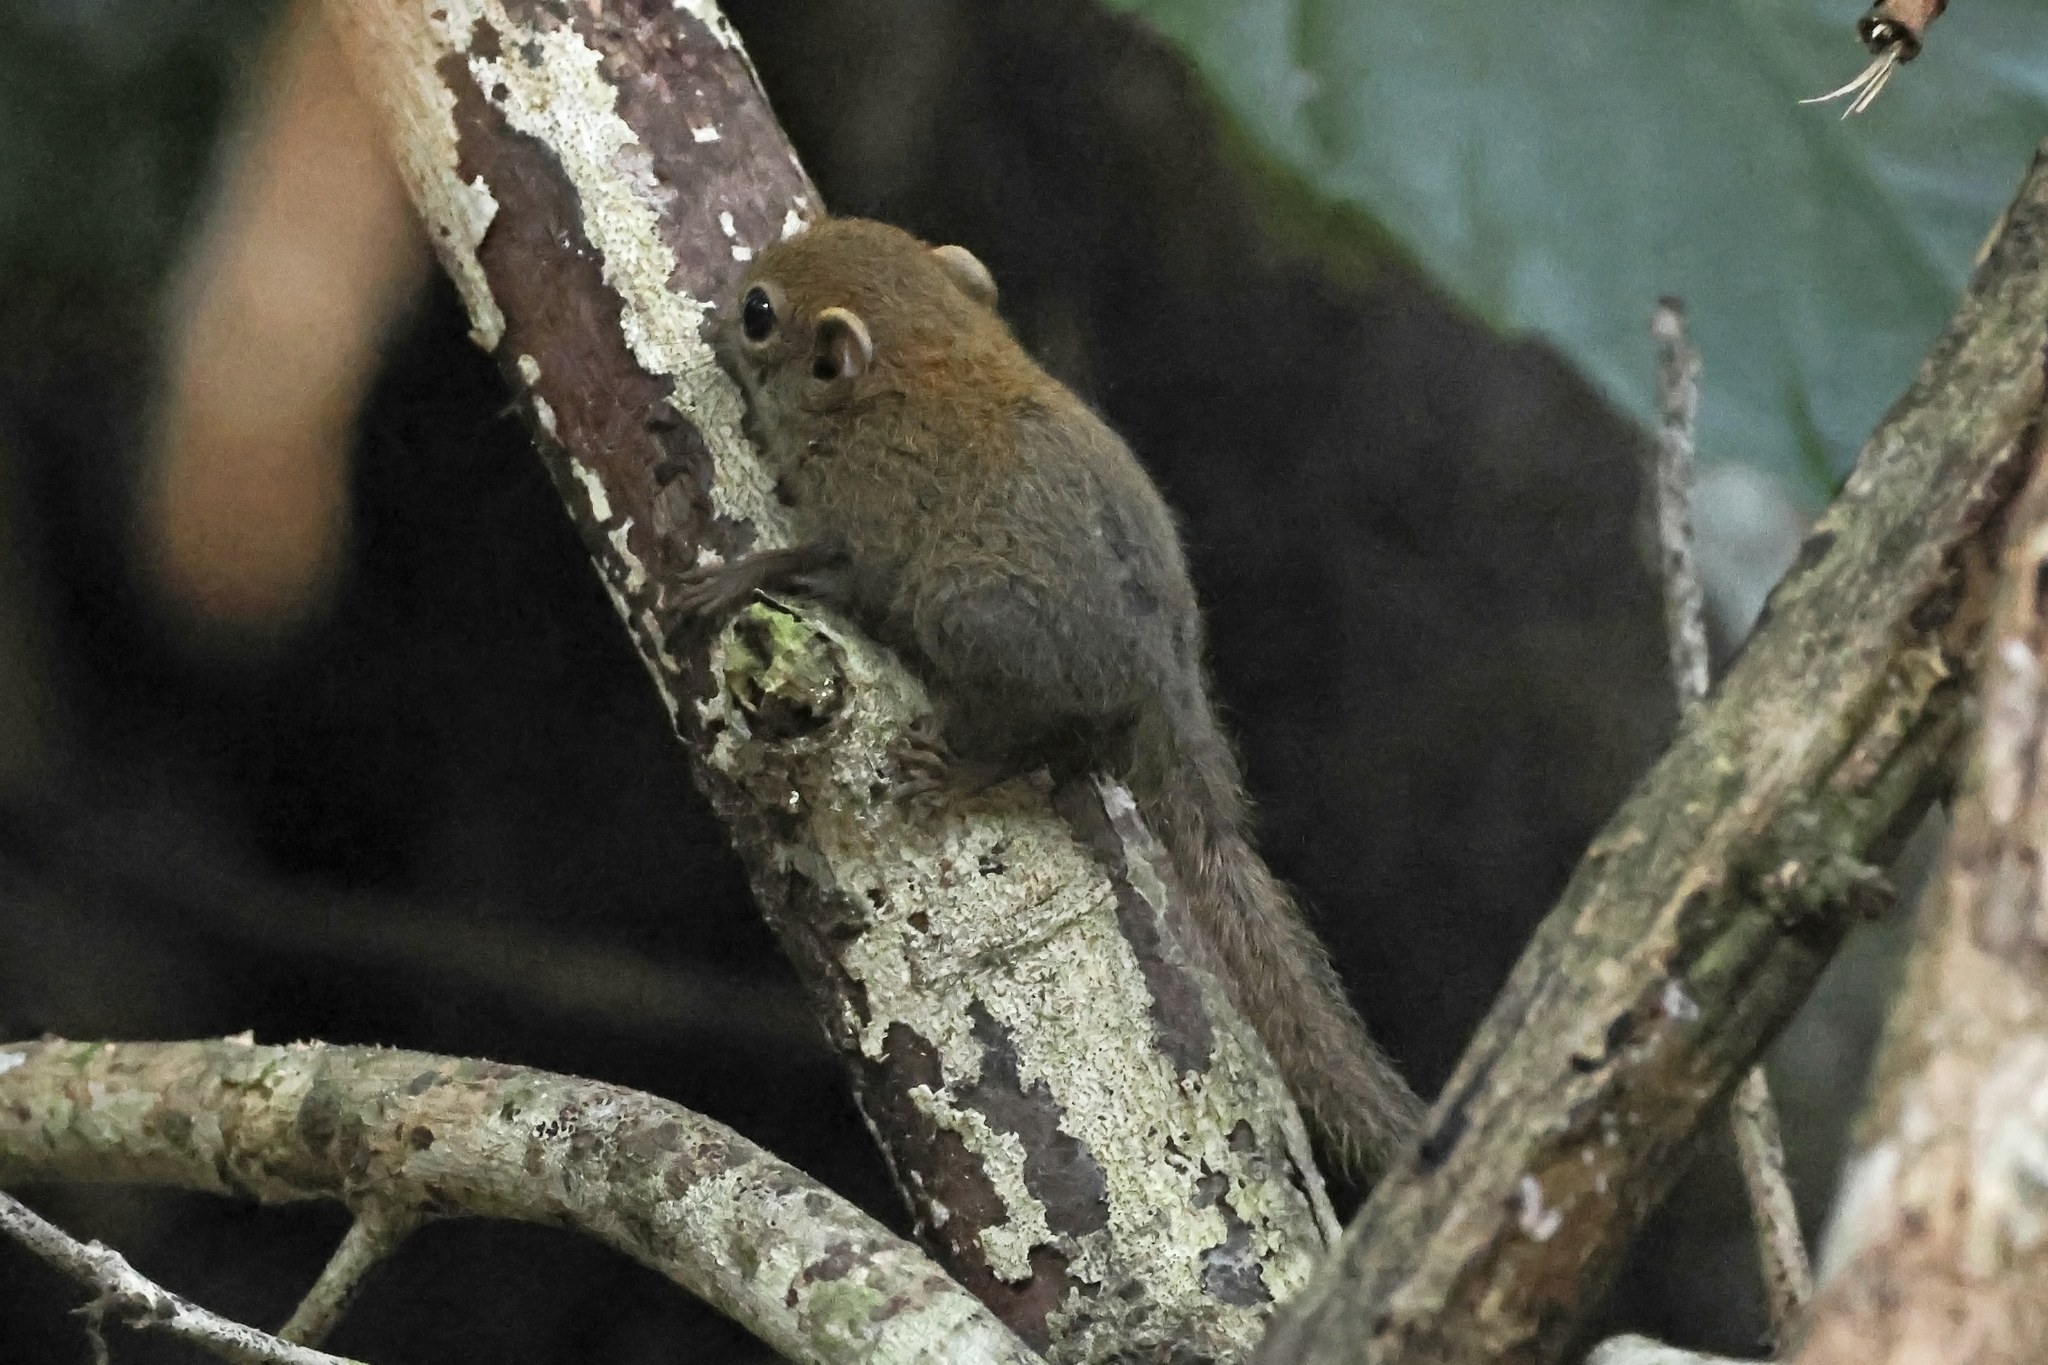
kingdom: Animalia
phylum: Chordata
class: Mammalia
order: Rodentia
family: Sciuridae
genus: Exilisciurus
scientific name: Exilisciurus exilis
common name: Least pygmy squirrel
